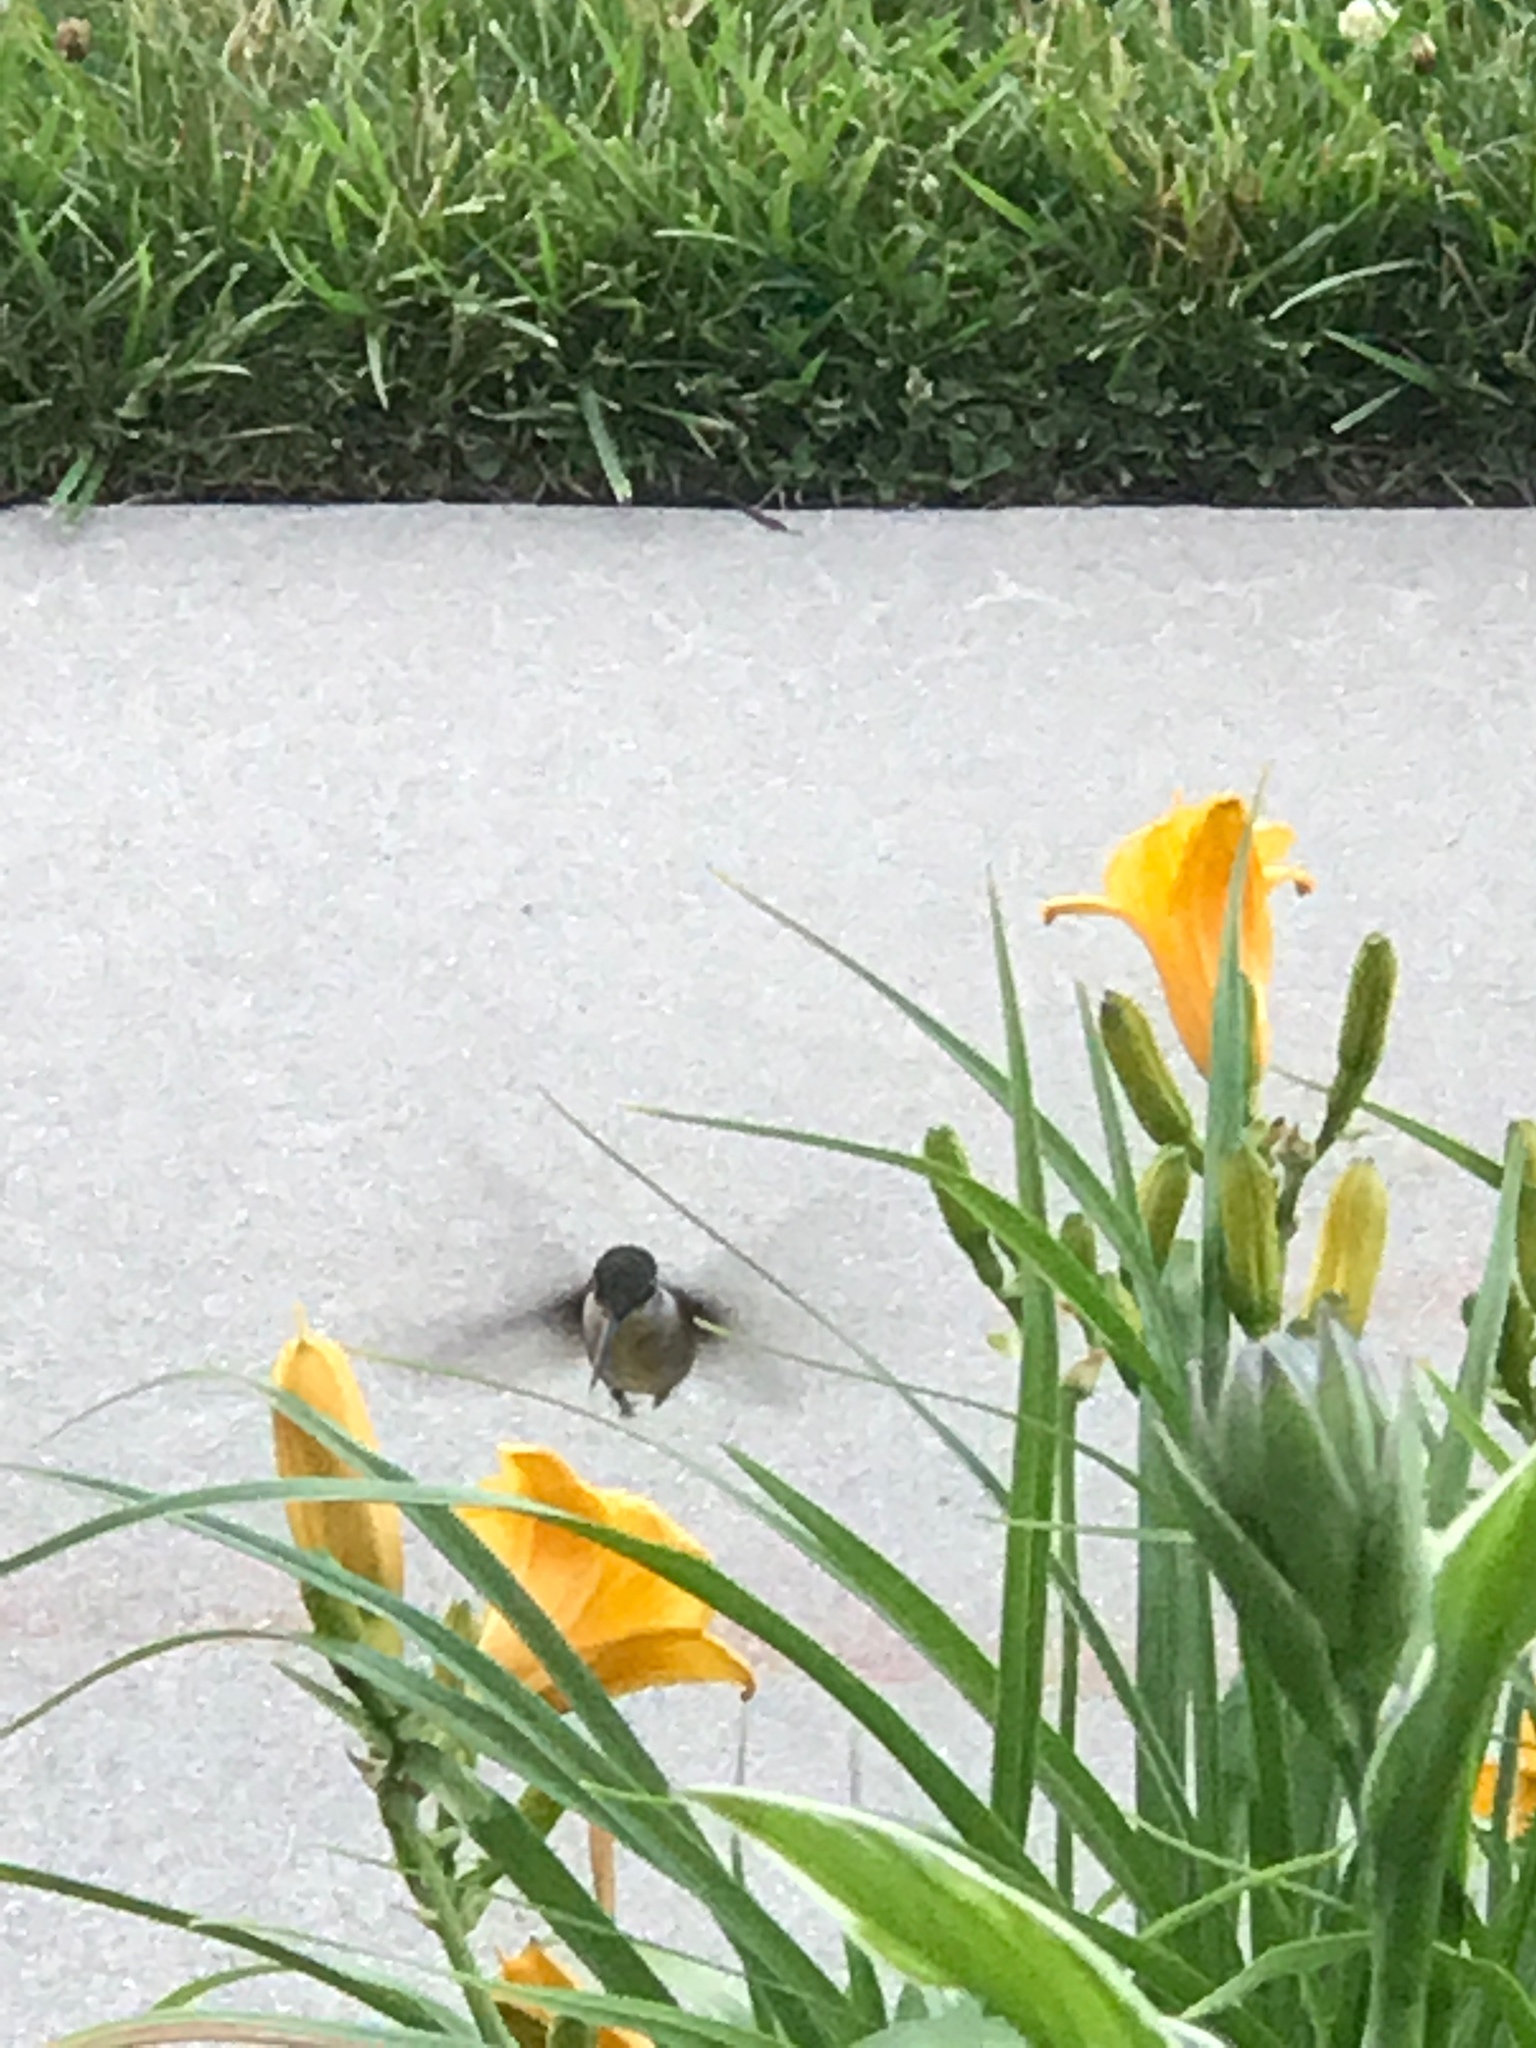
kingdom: Animalia
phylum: Chordata
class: Aves
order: Apodiformes
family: Trochilidae
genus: Archilochus
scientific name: Archilochus colubris
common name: Ruby-throated hummingbird
